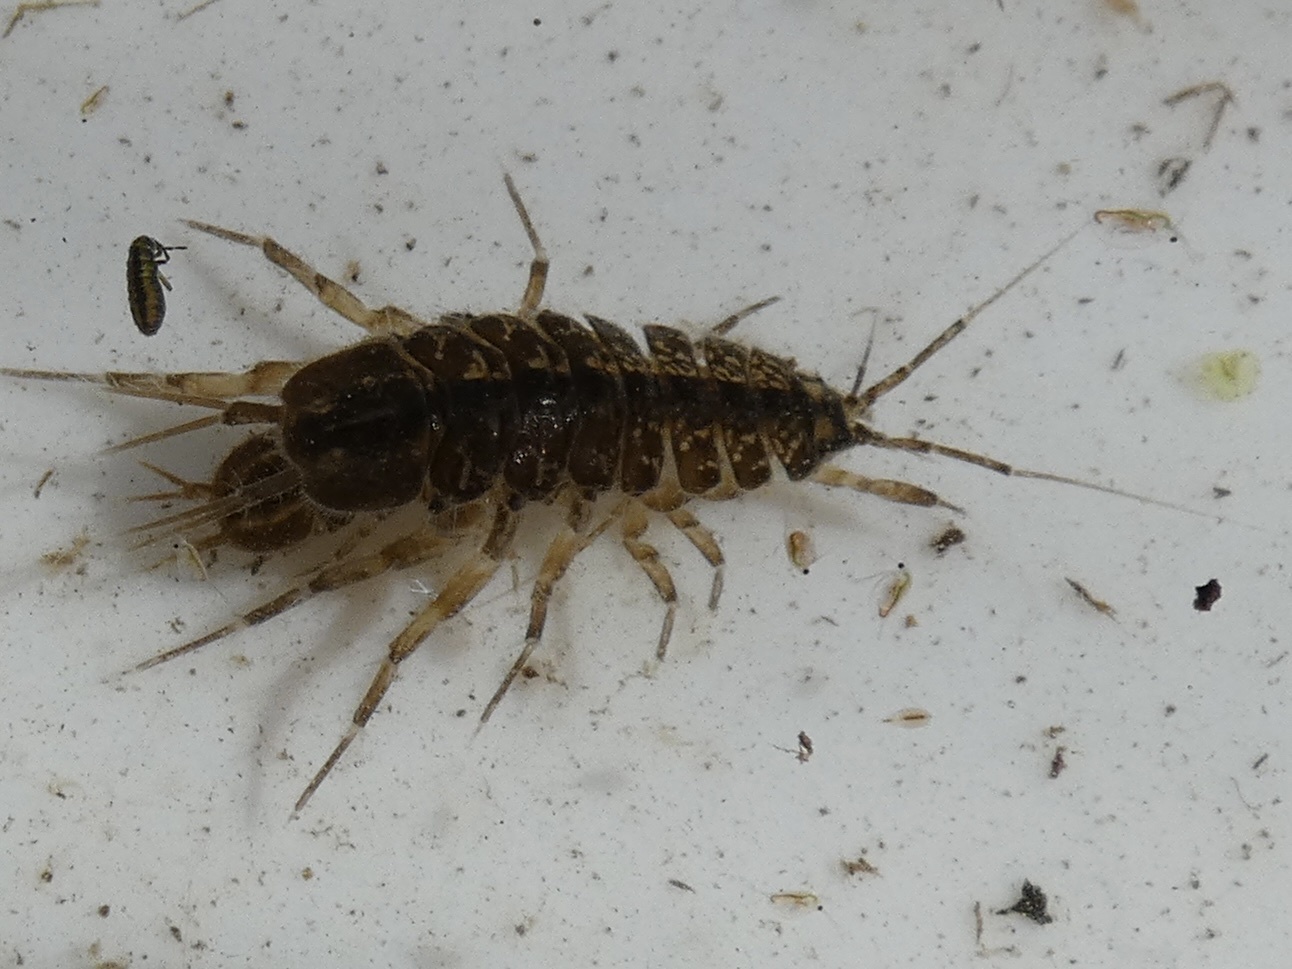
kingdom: Animalia
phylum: Arthropoda
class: Malacostraca
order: Isopoda
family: Asellidae
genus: Asellus
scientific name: Asellus aquaticus
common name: Water hog lice/slaters
